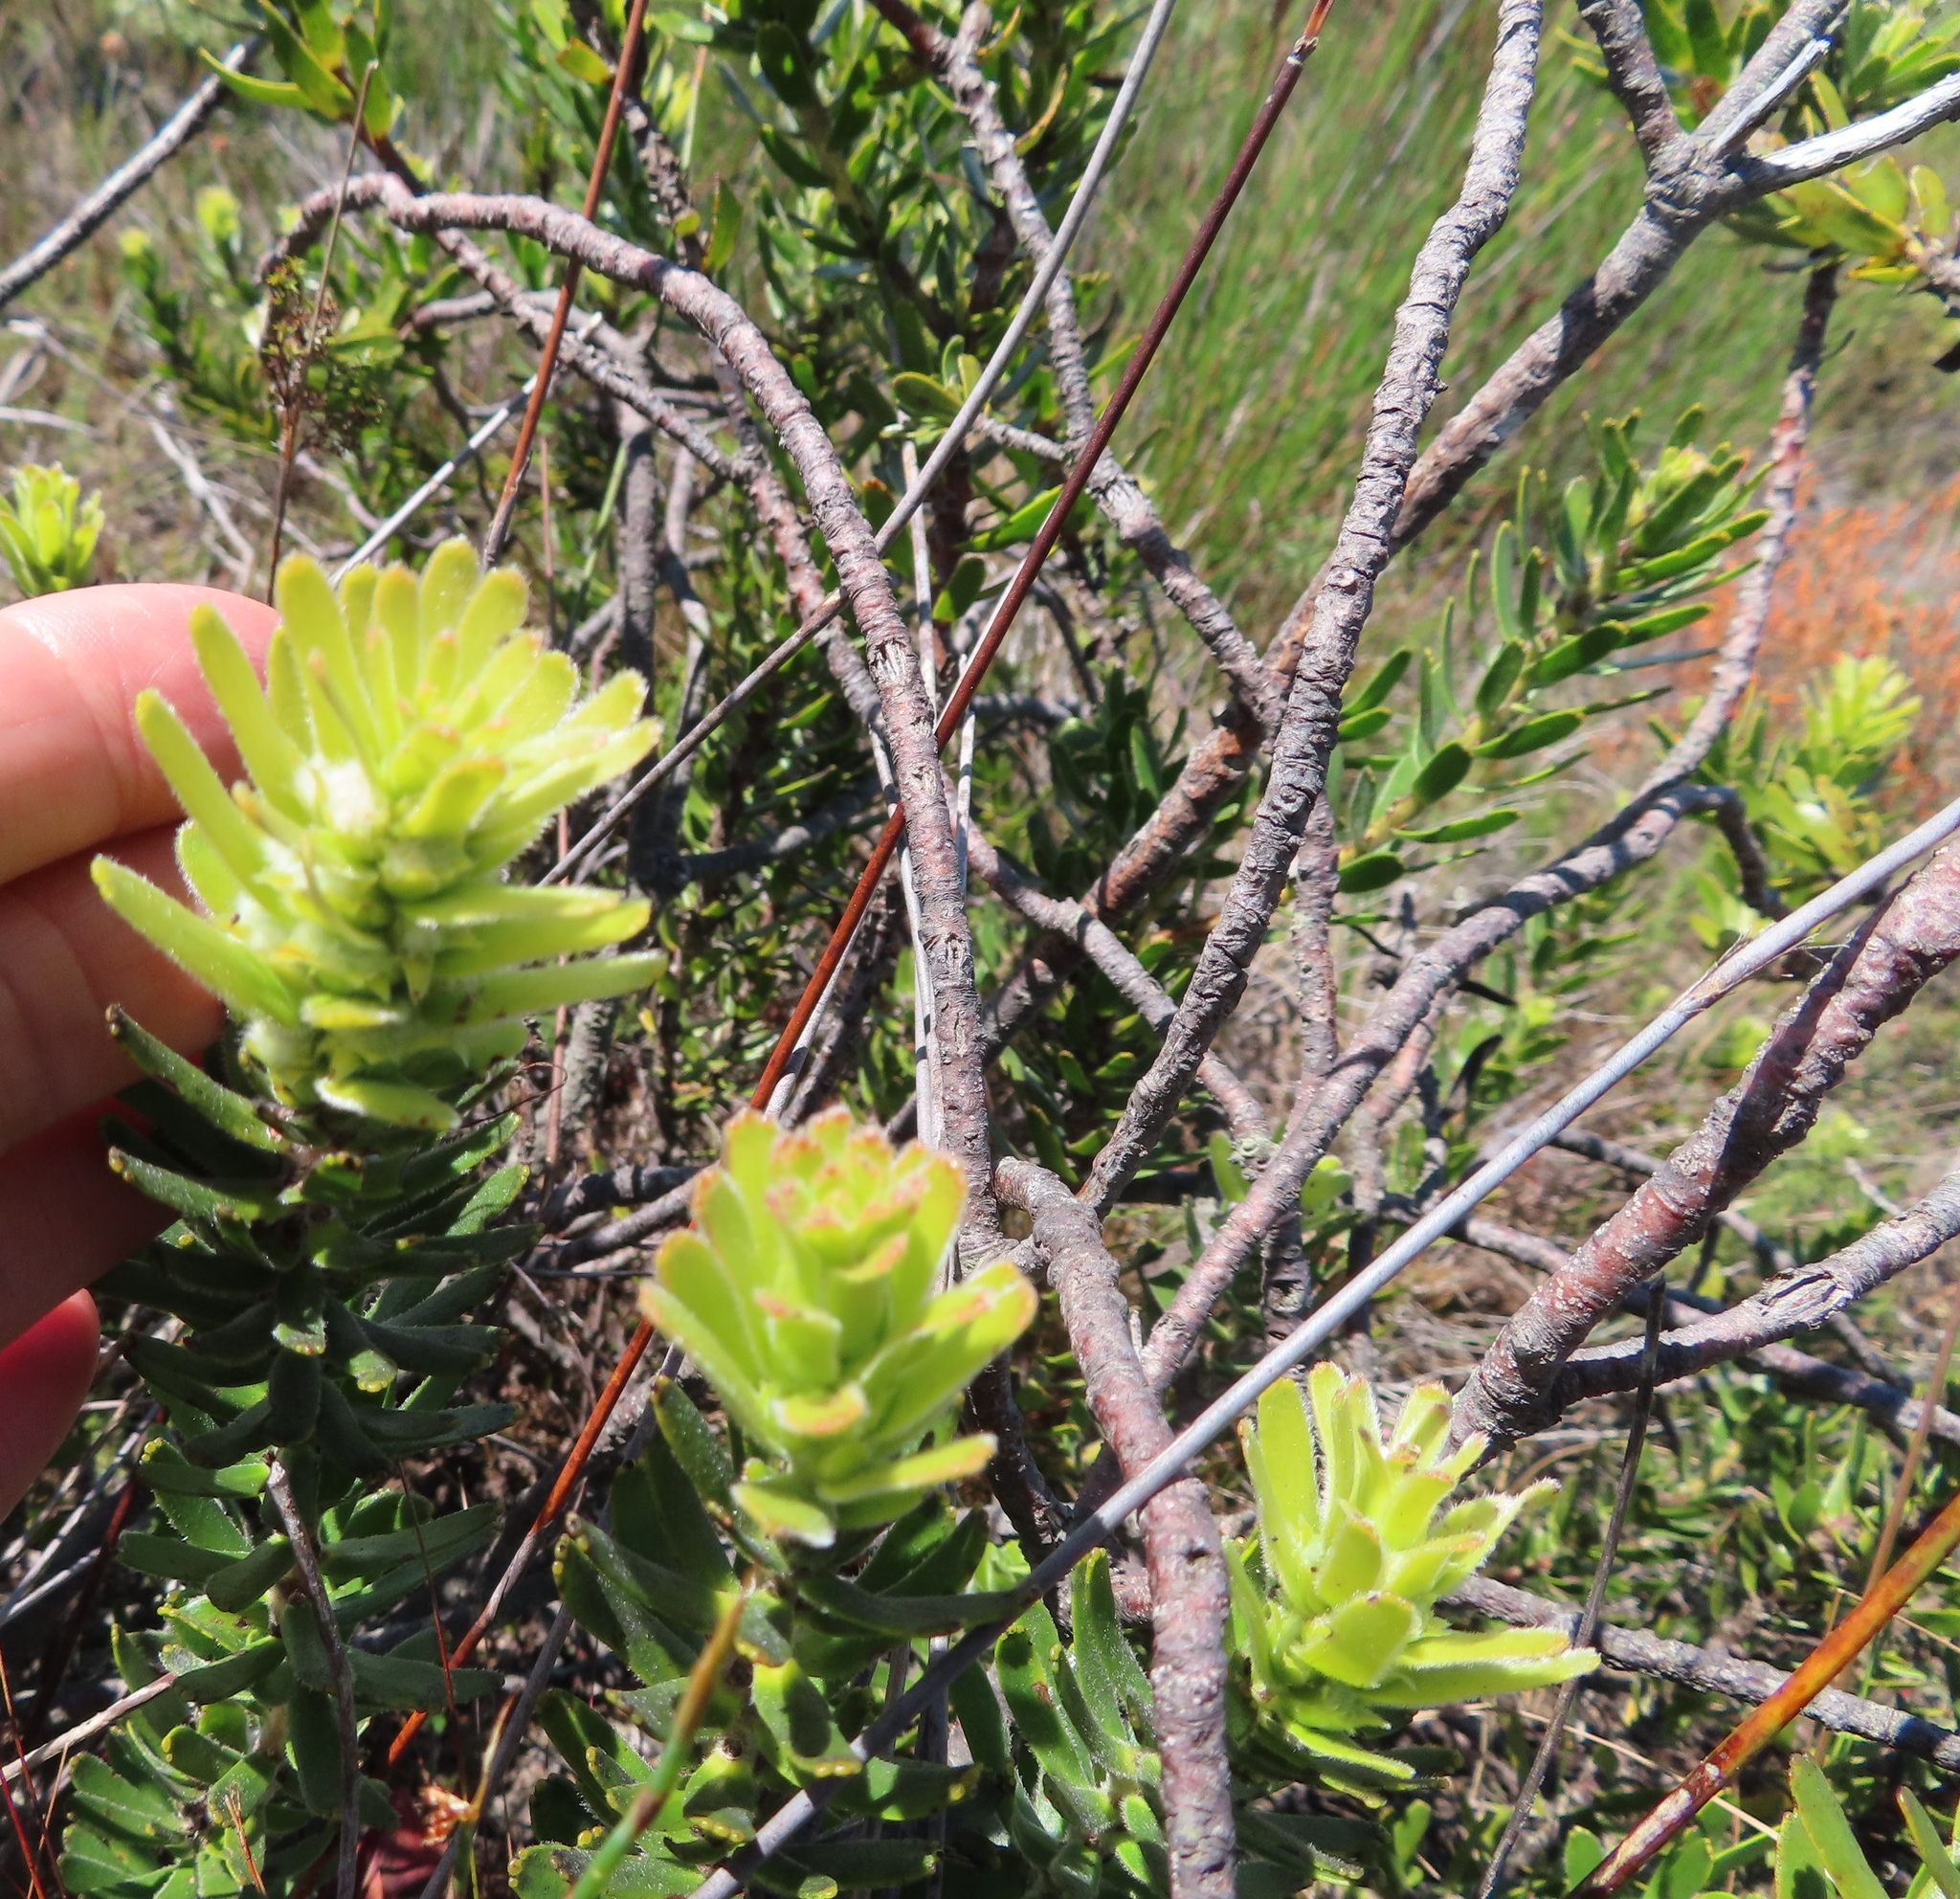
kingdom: Plantae
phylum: Tracheophyta
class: Magnoliopsida
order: Proteales
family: Proteaceae
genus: Mimetes
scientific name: Mimetes cucullatus
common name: Common pagoda
